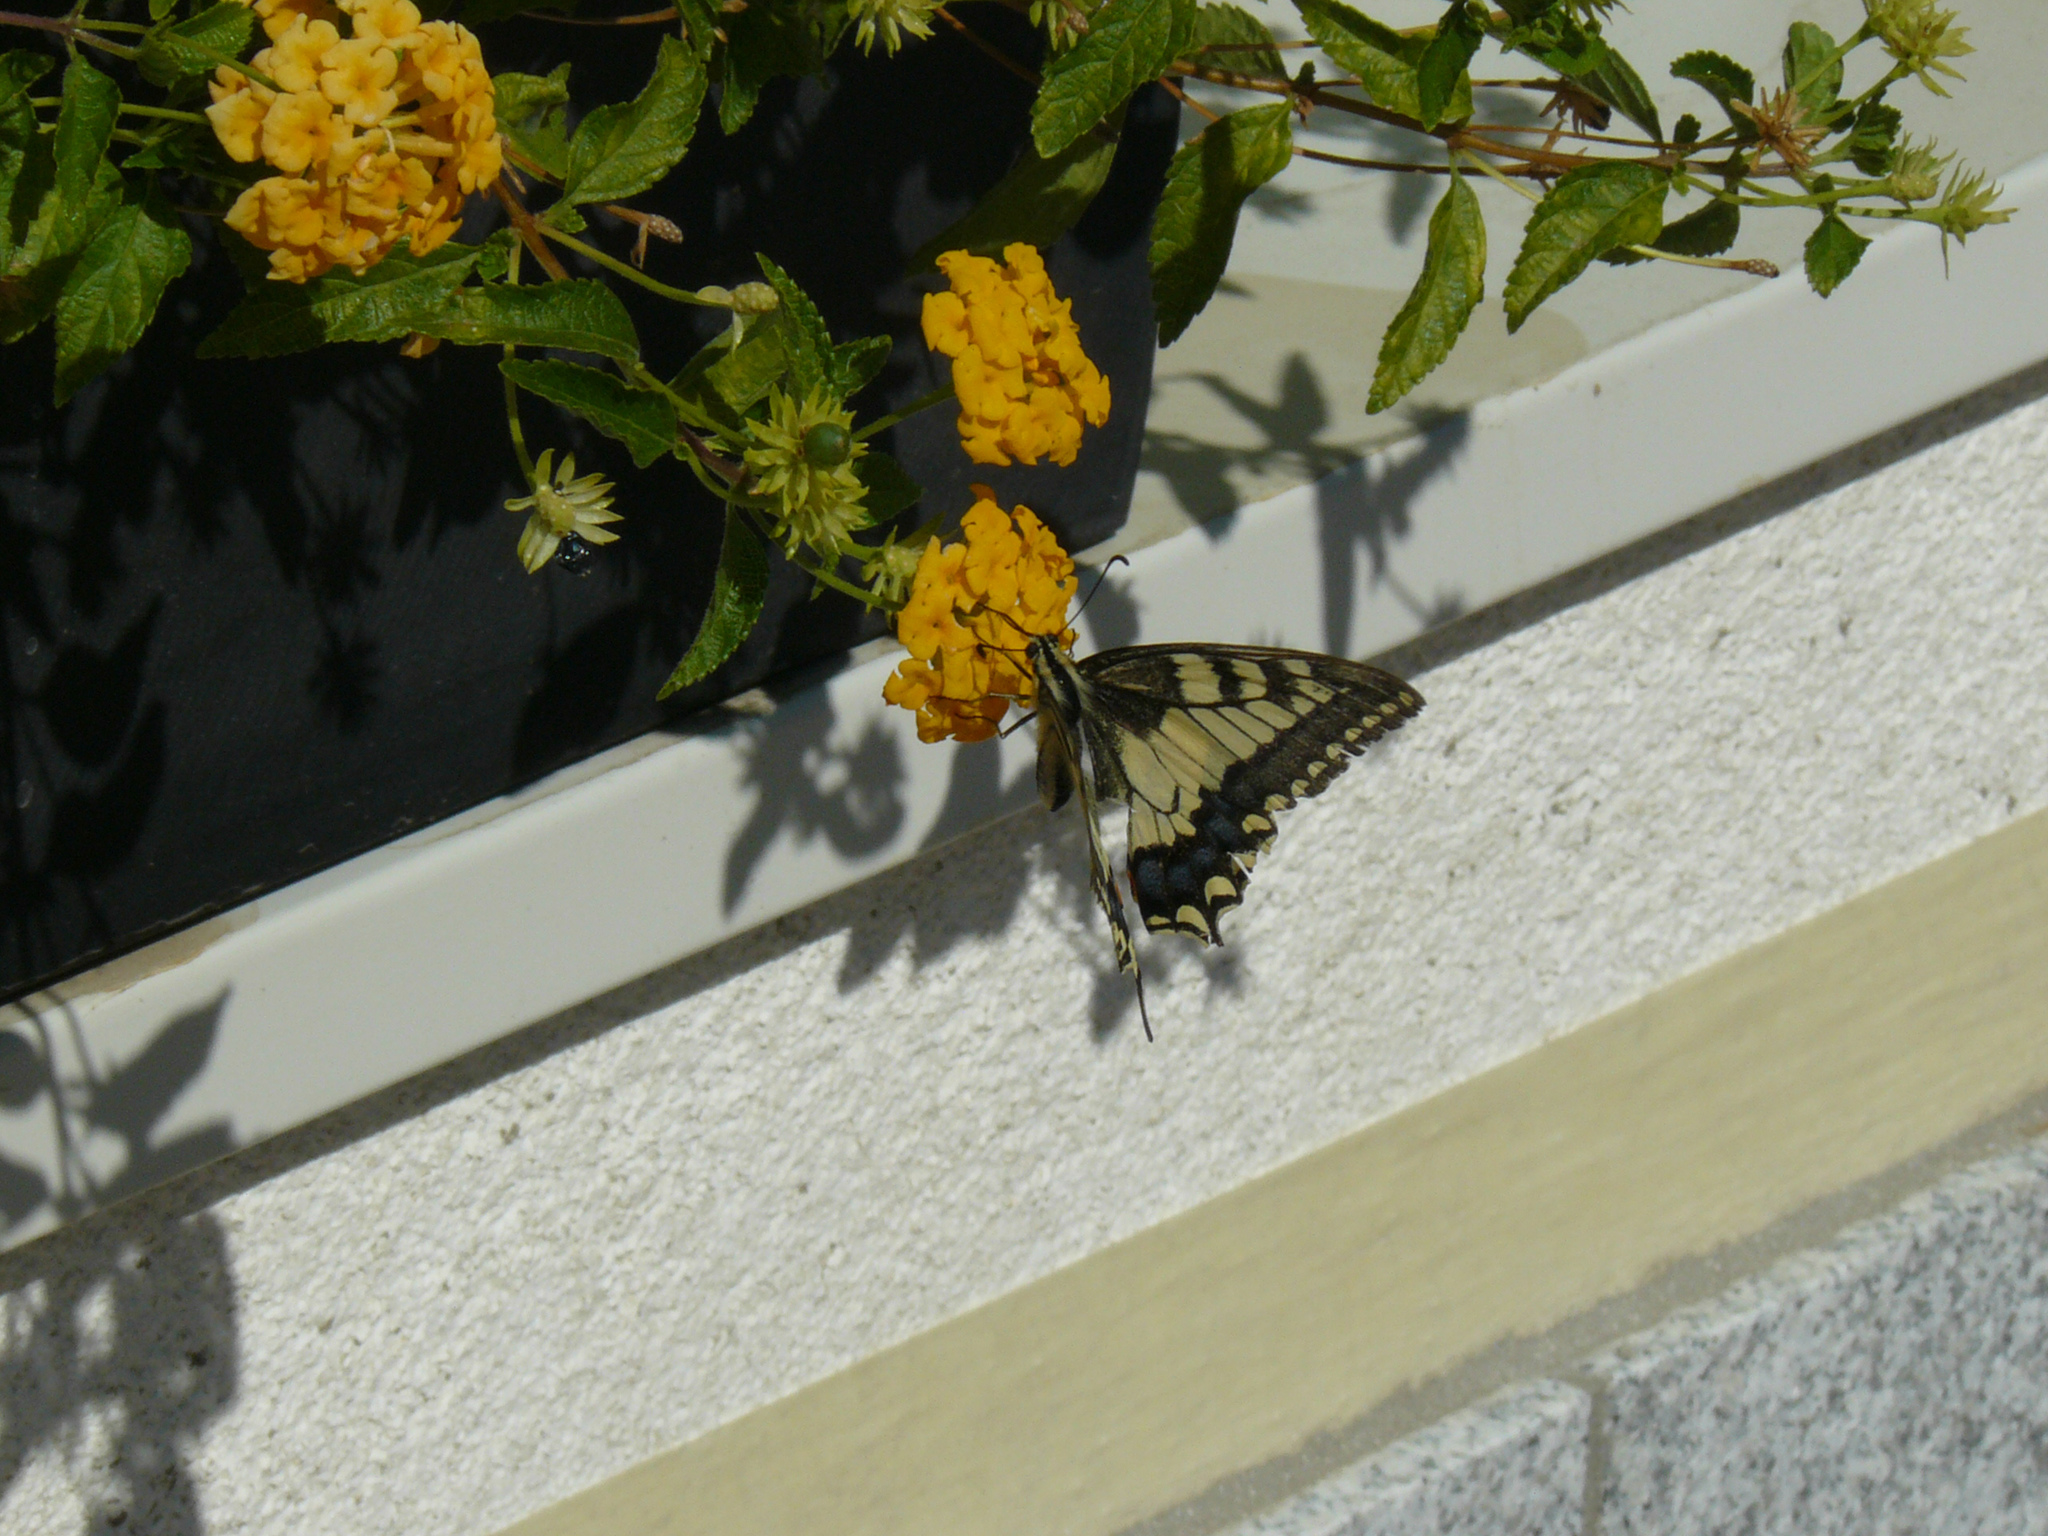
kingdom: Animalia
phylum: Arthropoda
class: Insecta
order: Lepidoptera
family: Papilionidae
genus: Papilio
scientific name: Papilio machaon
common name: Swallowtail
